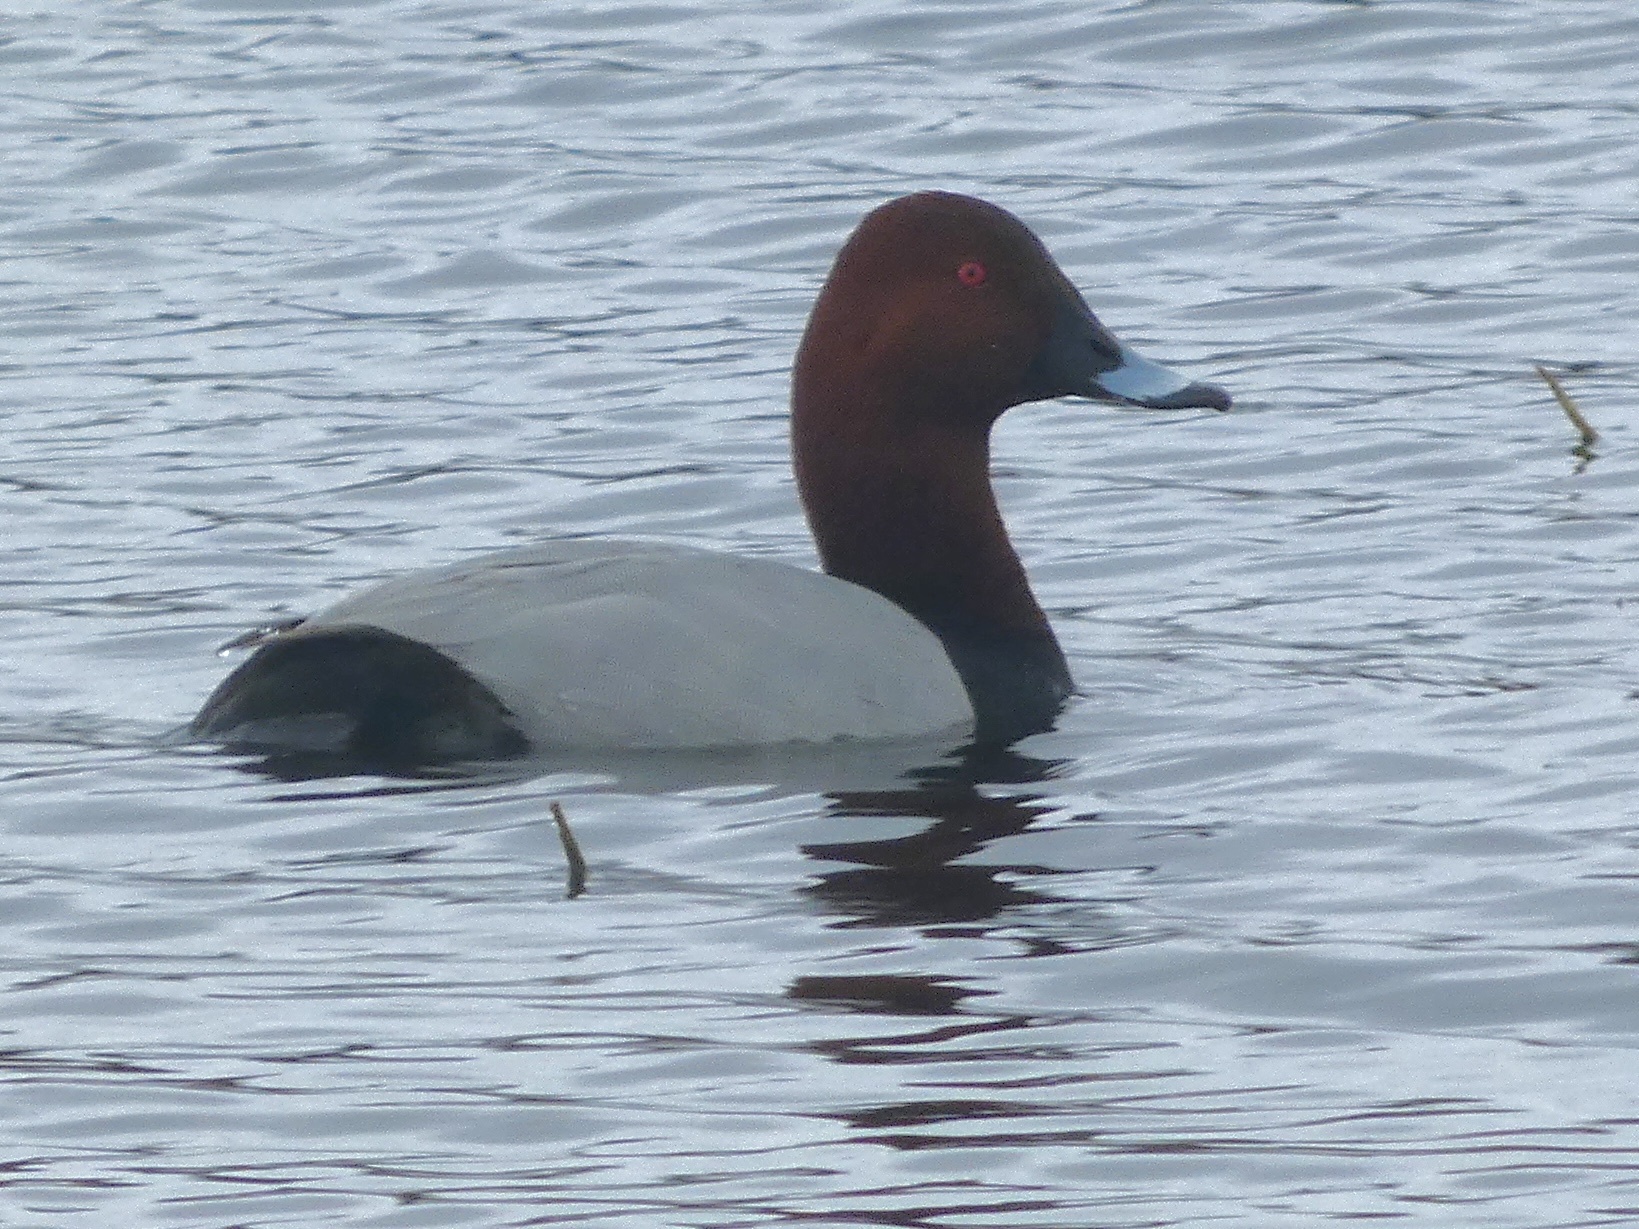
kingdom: Animalia
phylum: Chordata
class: Aves
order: Anseriformes
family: Anatidae
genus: Aythya
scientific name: Aythya ferina
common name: Common pochard
